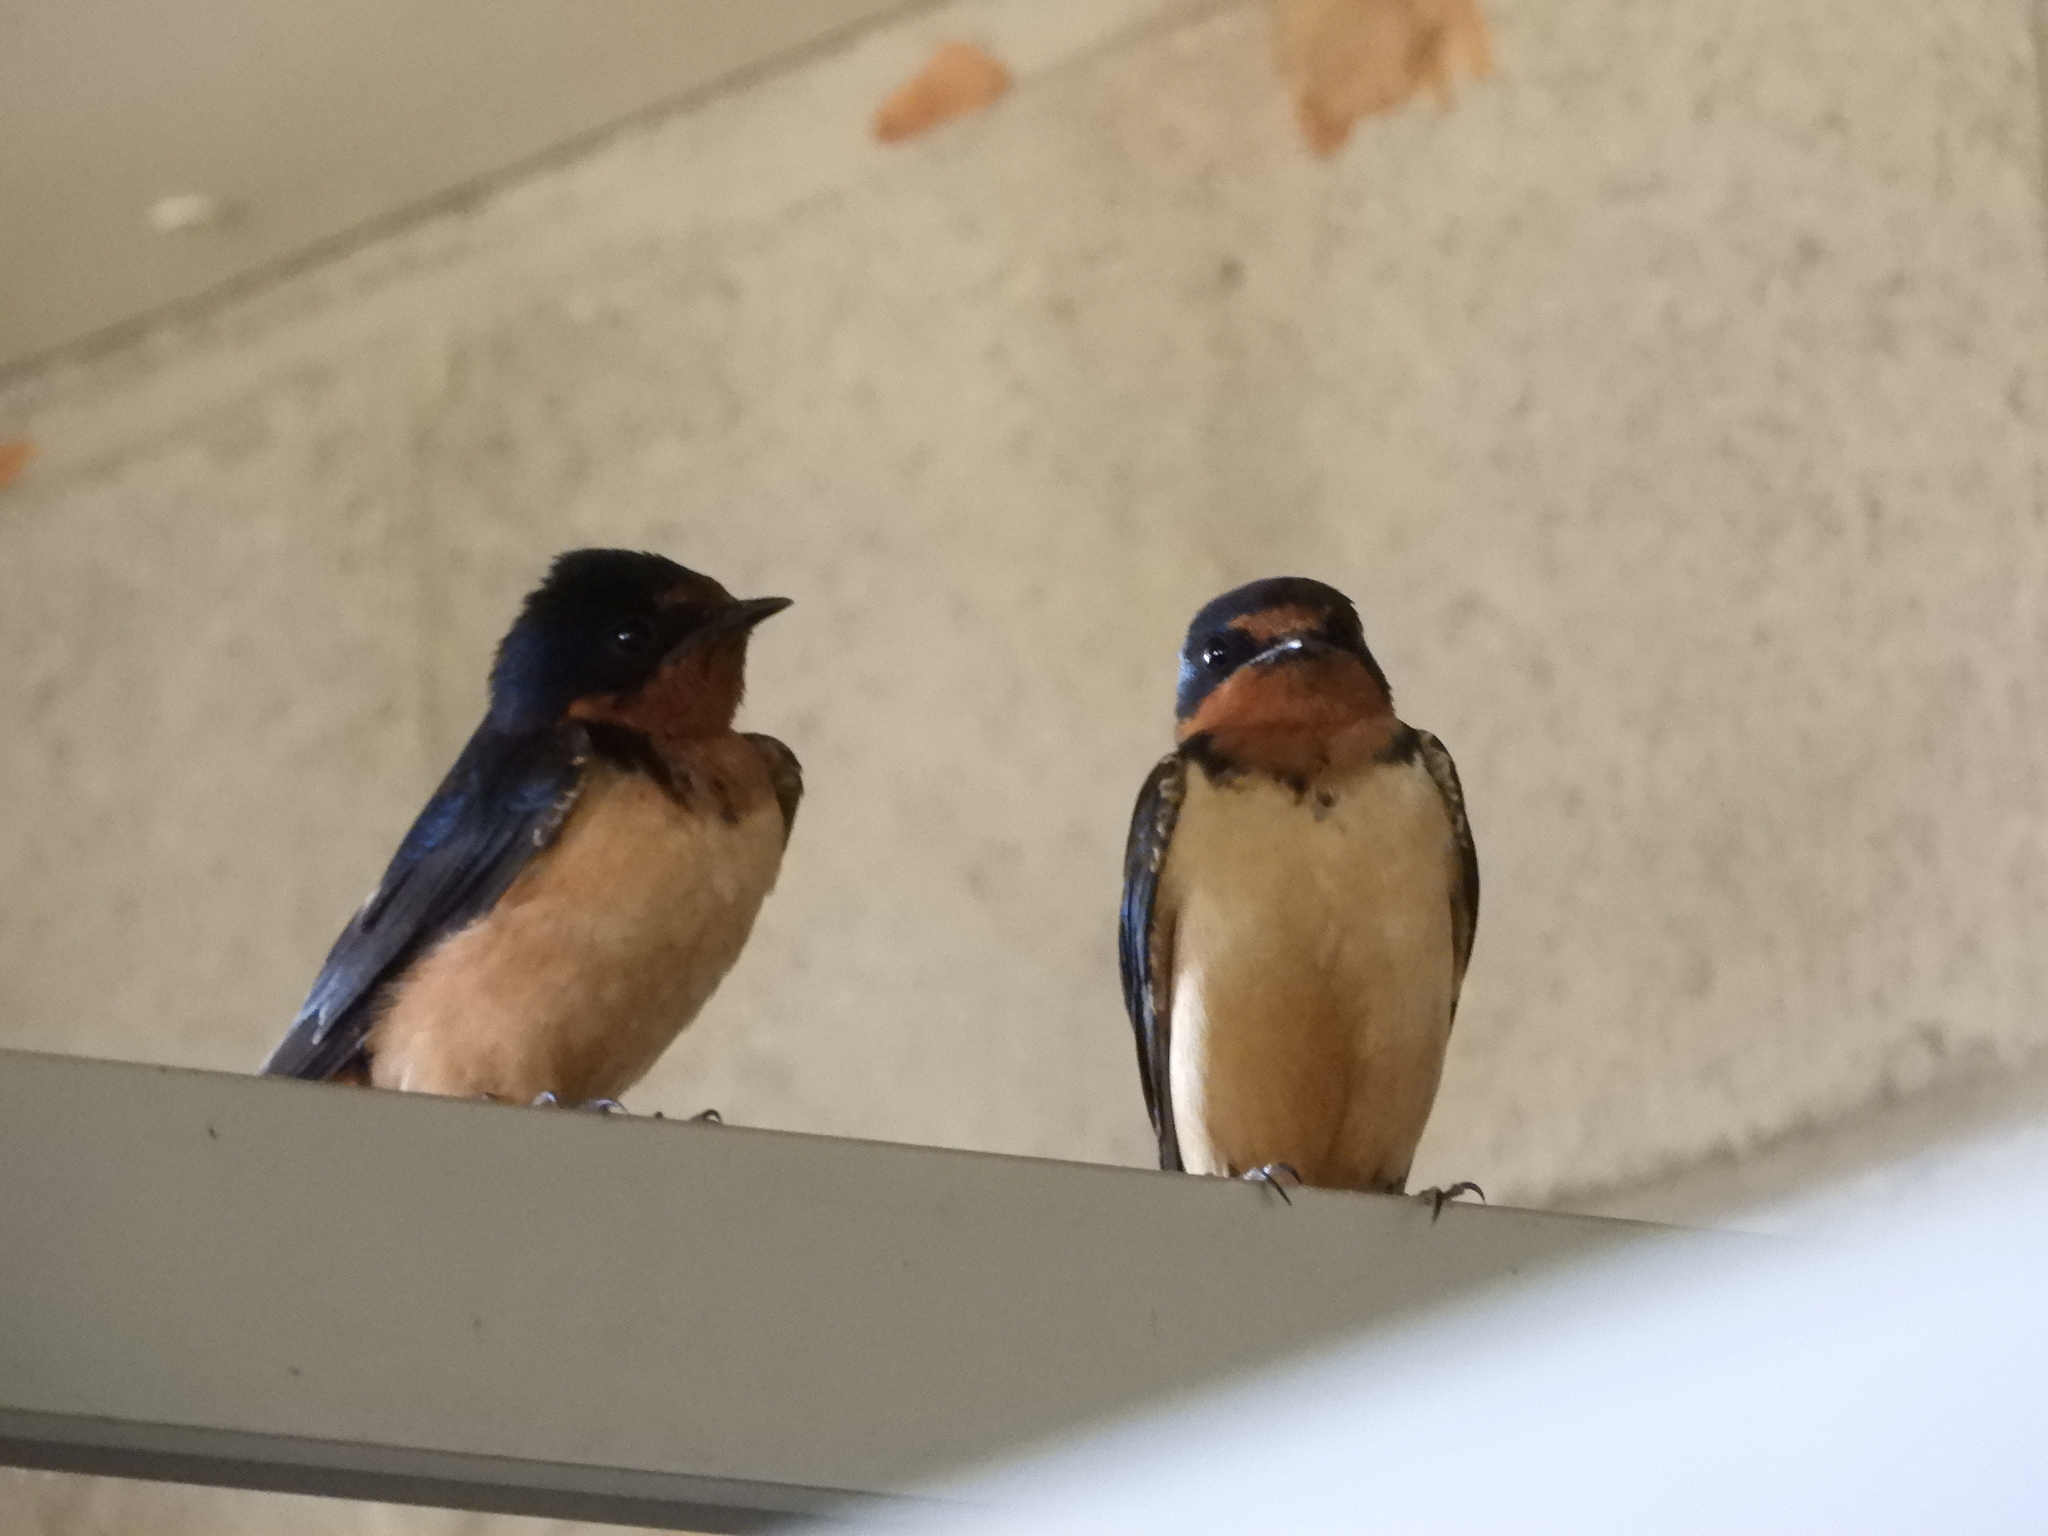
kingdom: Animalia
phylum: Chordata
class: Aves
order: Passeriformes
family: Hirundinidae
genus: Hirundo
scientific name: Hirundo rustica
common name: Barn swallow
